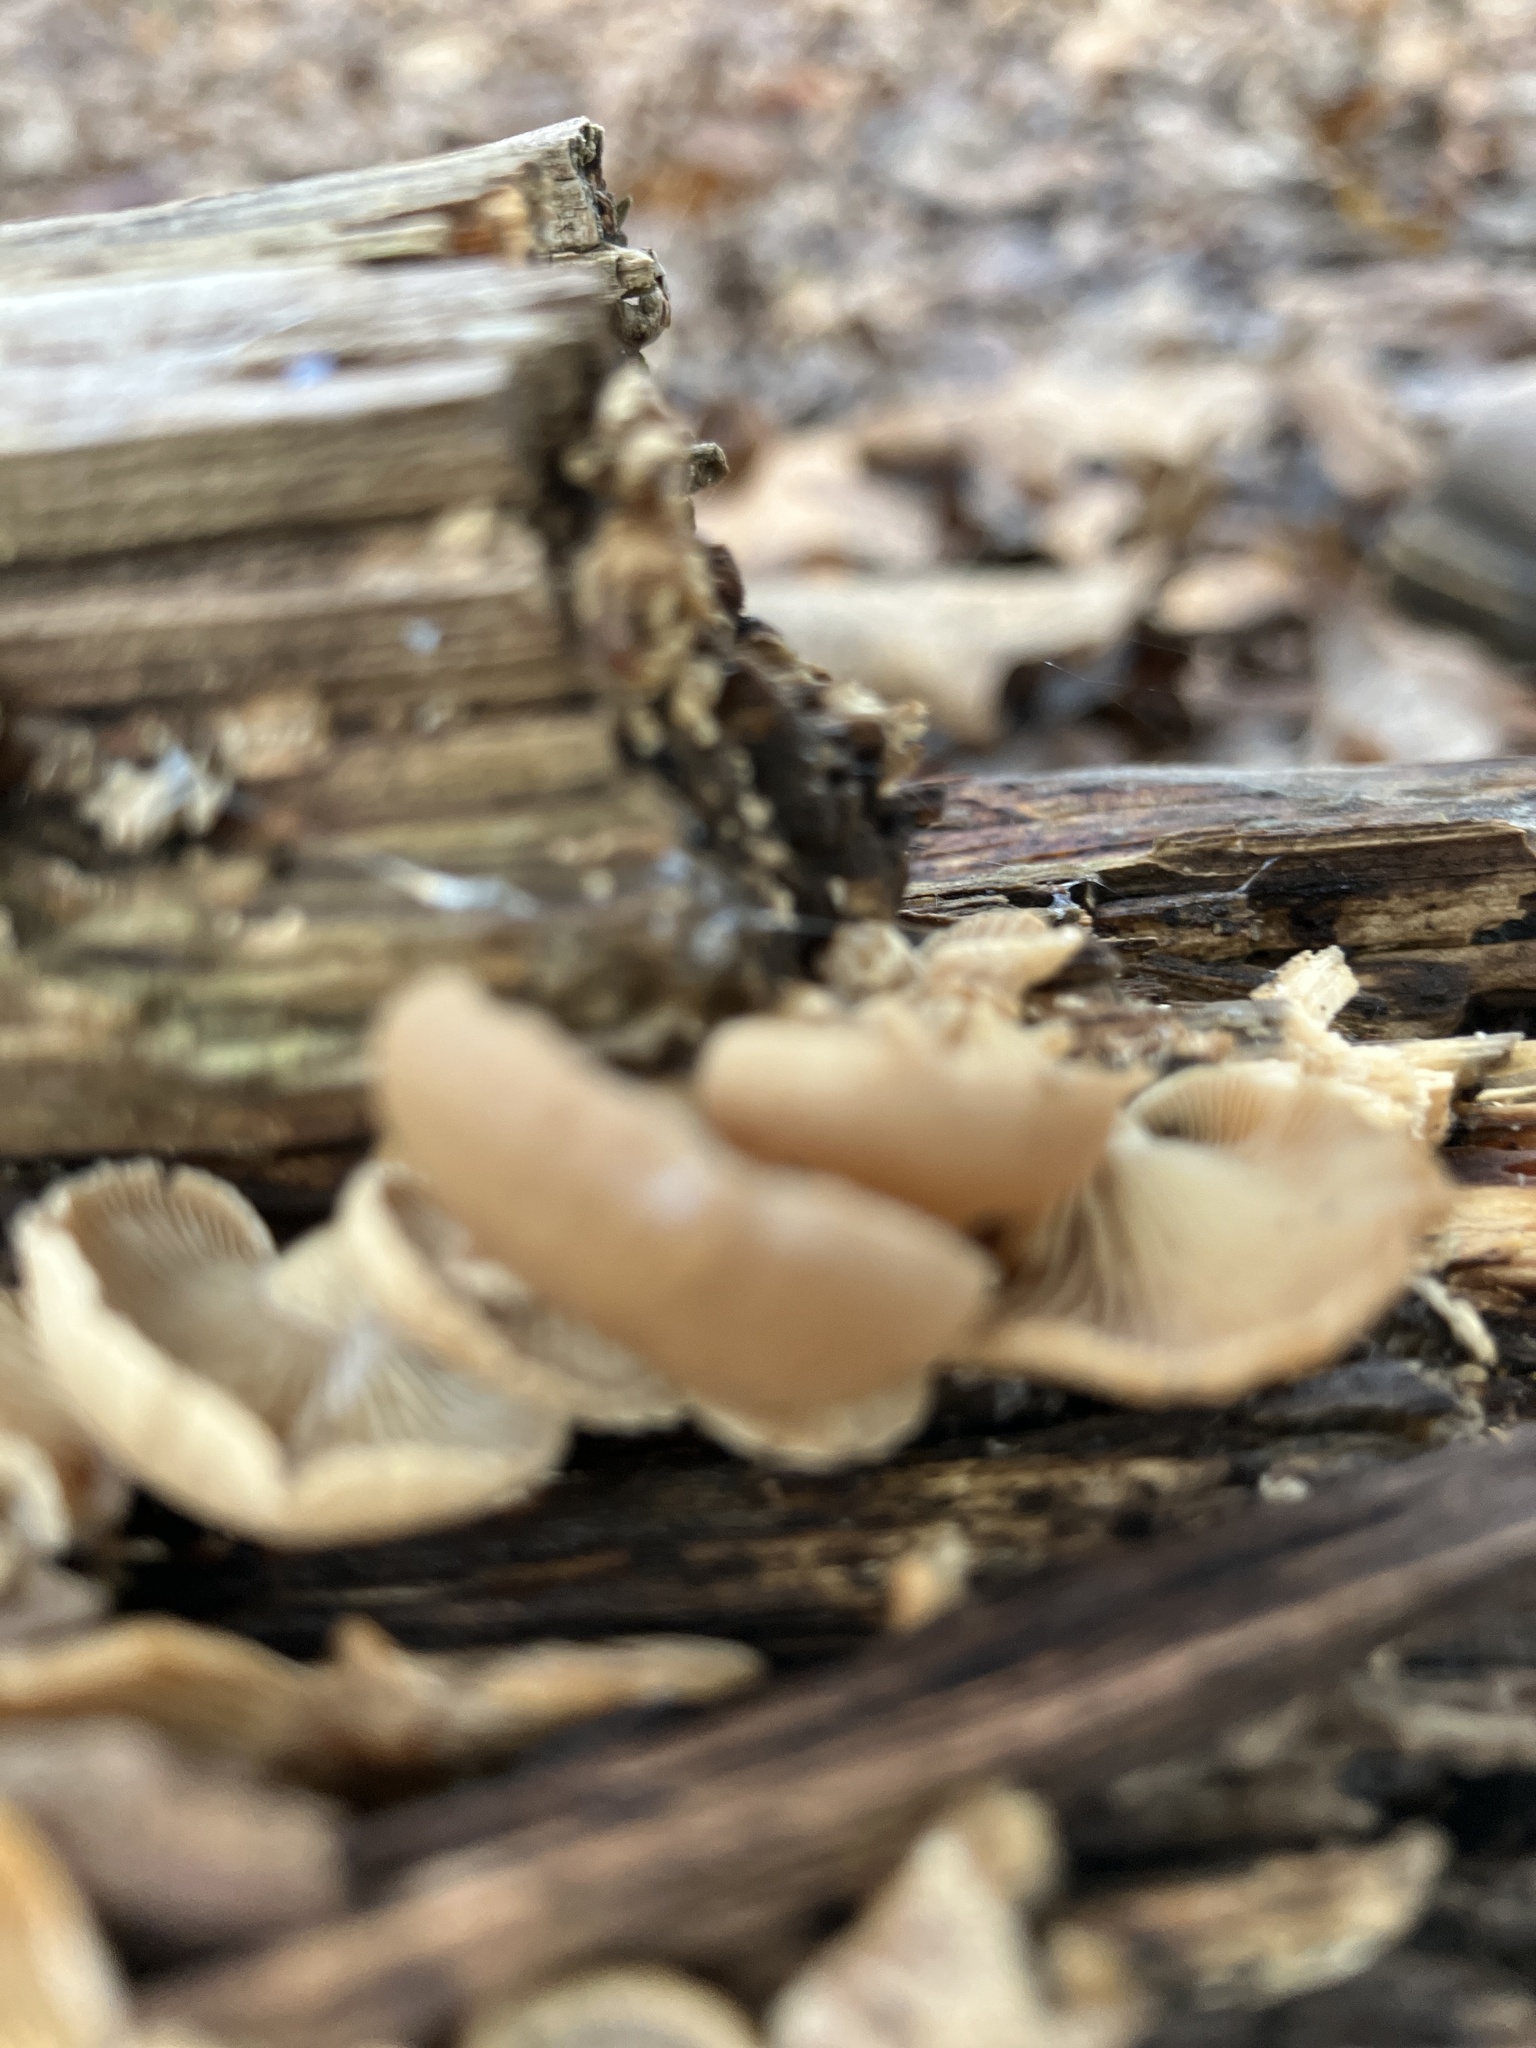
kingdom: Fungi
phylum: Basidiomycota
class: Agaricomycetes
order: Agaricales
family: Mycenaceae
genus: Panellus
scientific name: Panellus stipticus
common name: Bitter oysterling
